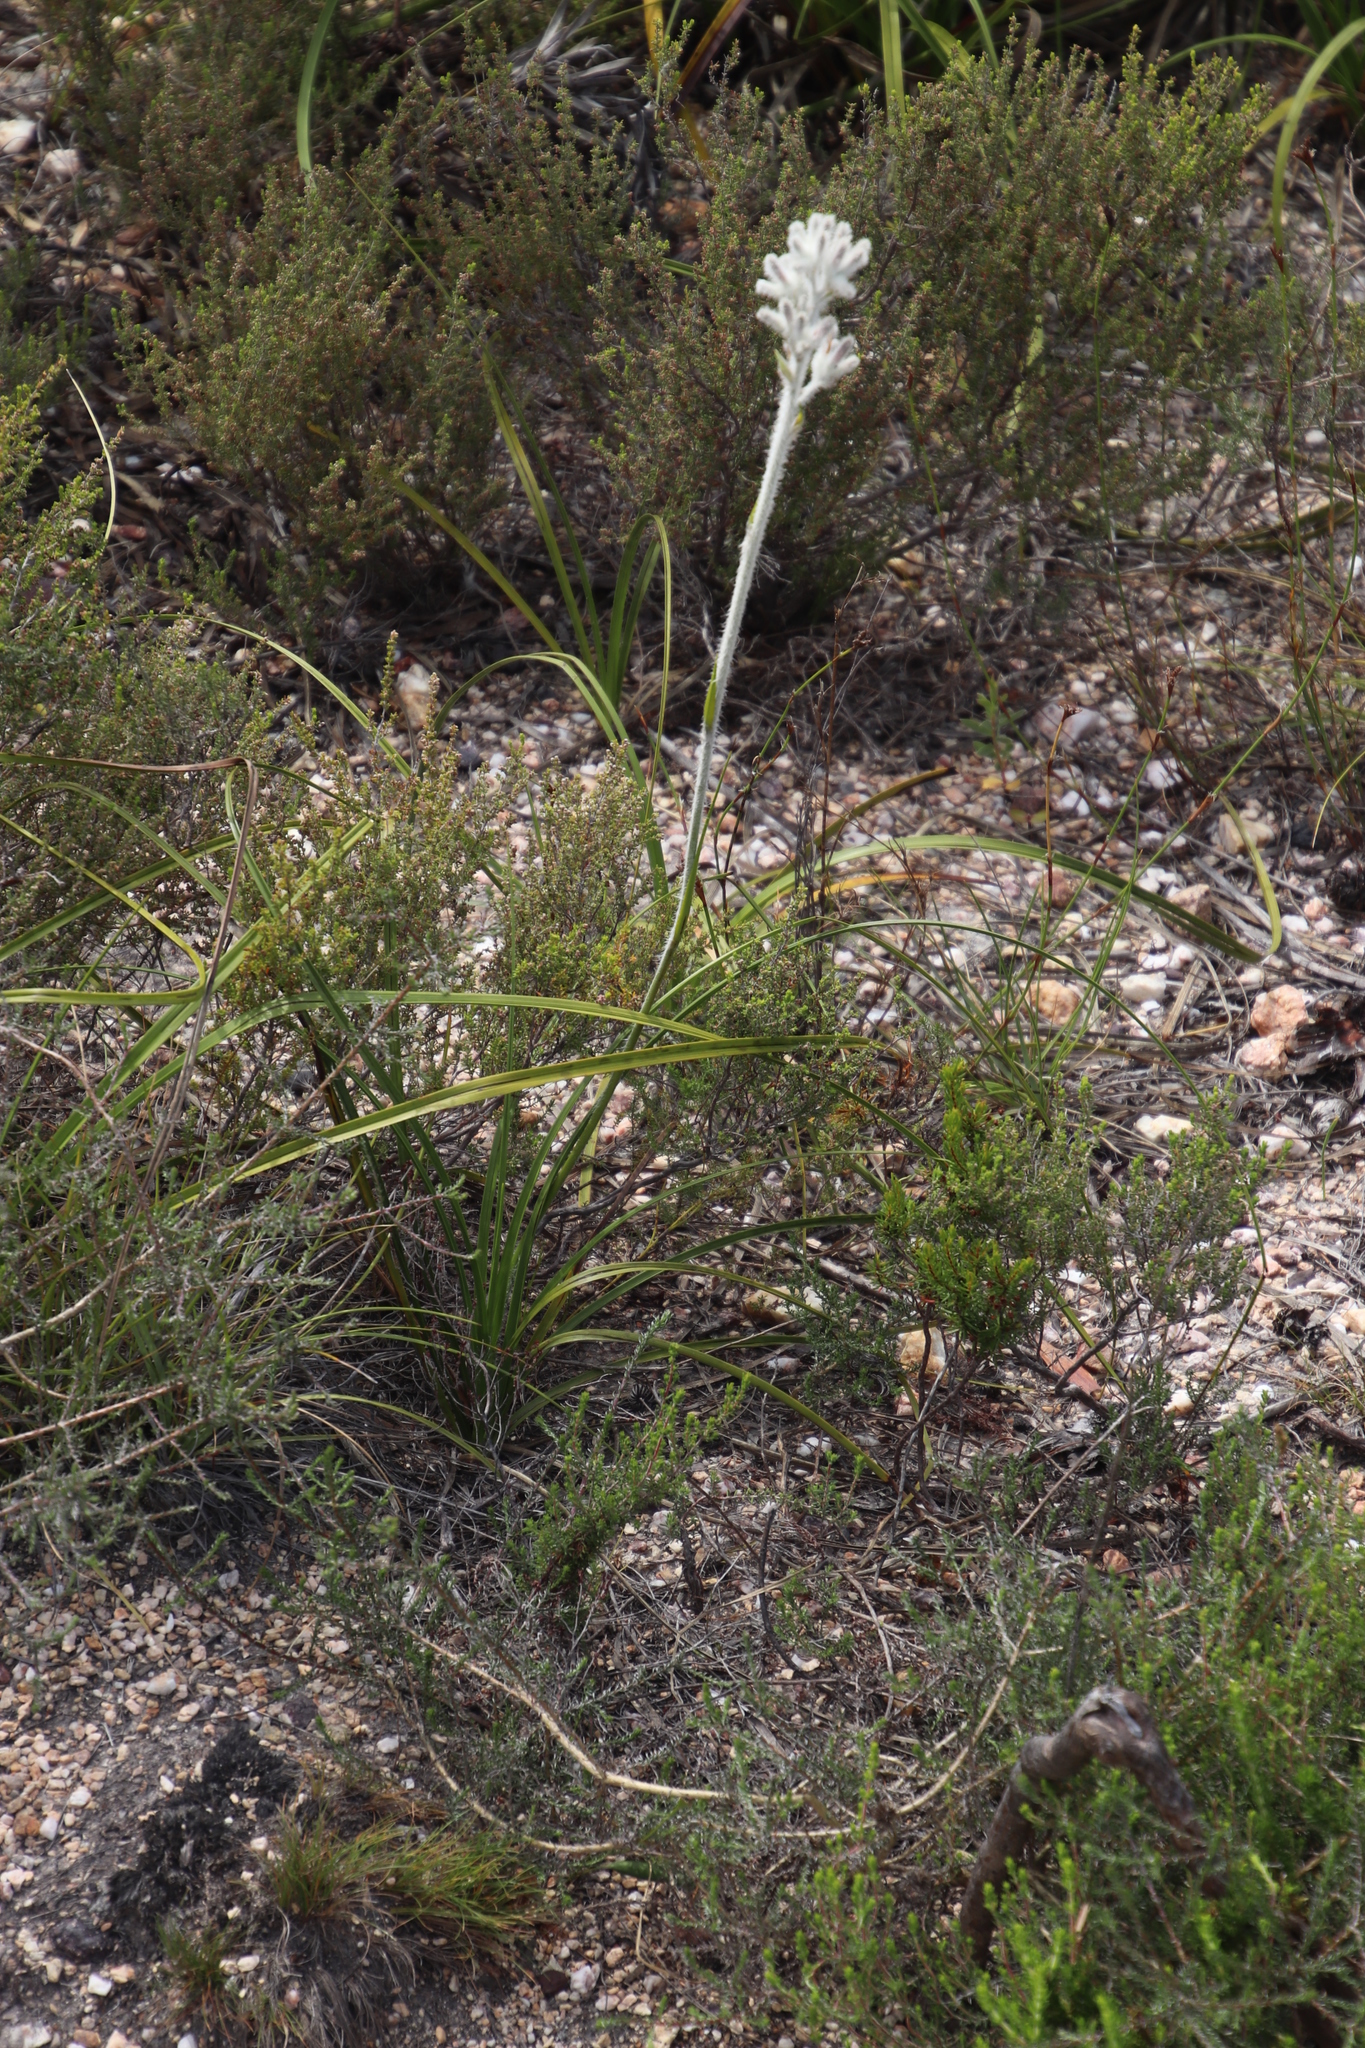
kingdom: Plantae
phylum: Tracheophyta
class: Liliopsida
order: Asparagales
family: Lanariaceae
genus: Lanaria
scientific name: Lanaria lanata
